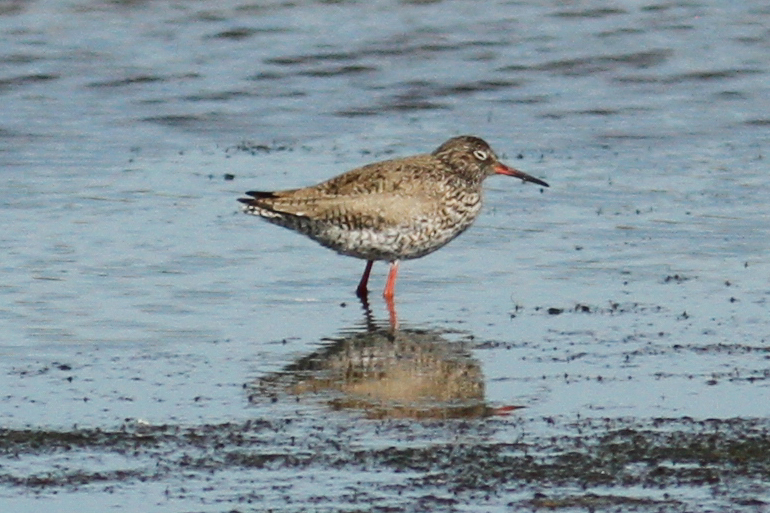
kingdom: Animalia
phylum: Chordata
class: Aves
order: Charadriiformes
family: Scolopacidae
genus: Tringa
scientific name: Tringa totanus
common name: Common redshank
